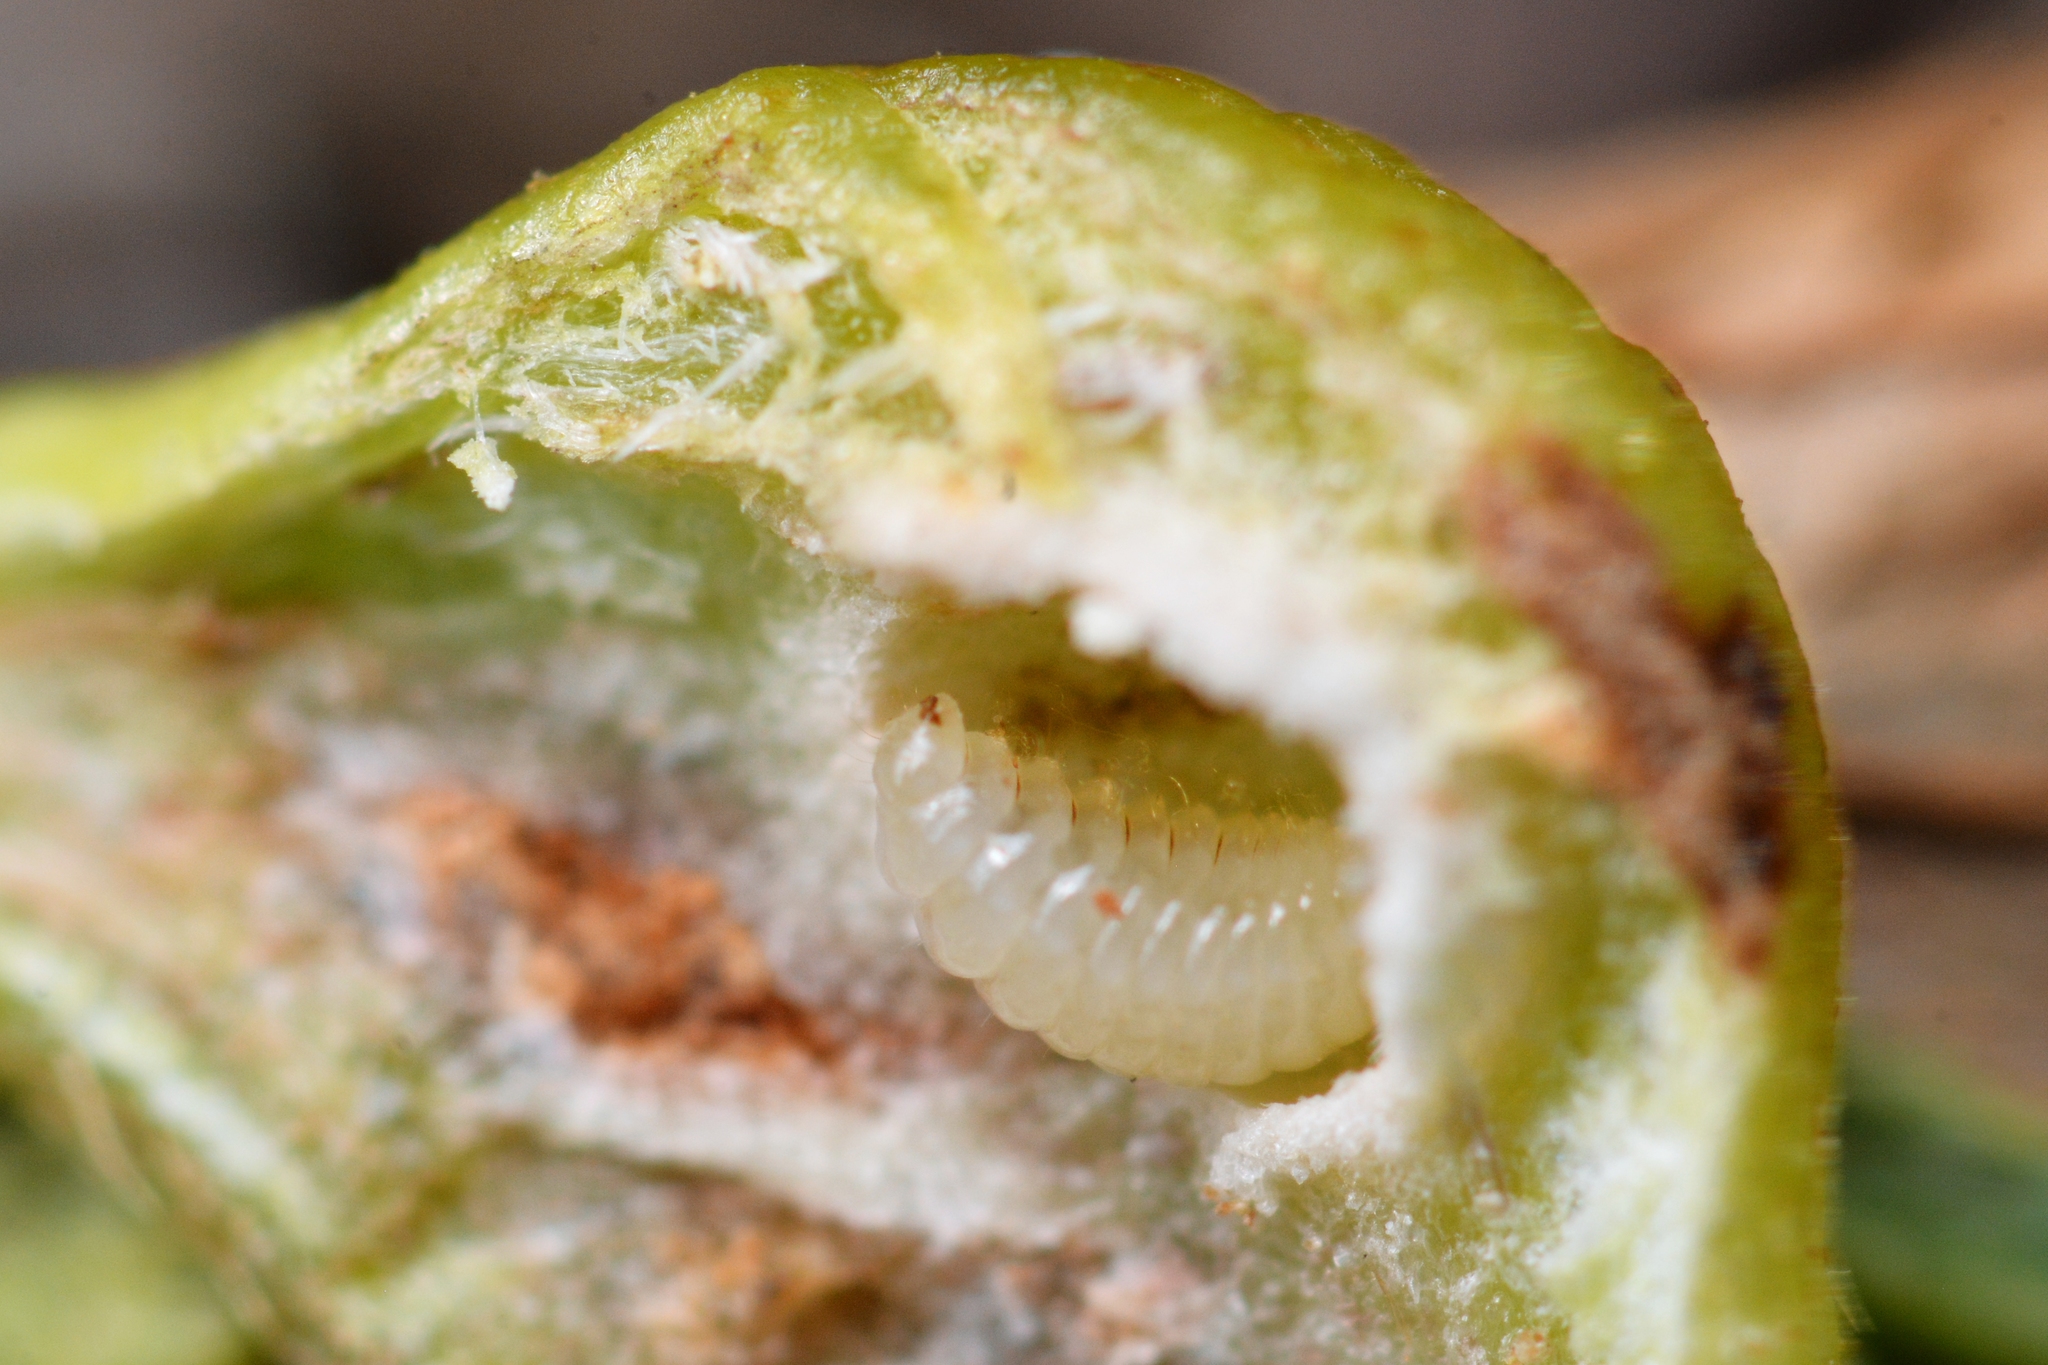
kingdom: Animalia
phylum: Arthropoda
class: Insecta
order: Hymenoptera
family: Cynipidae
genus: Dryocosmus
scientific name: Dryocosmus kuriphilus
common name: Asian chestnut gall wasp
